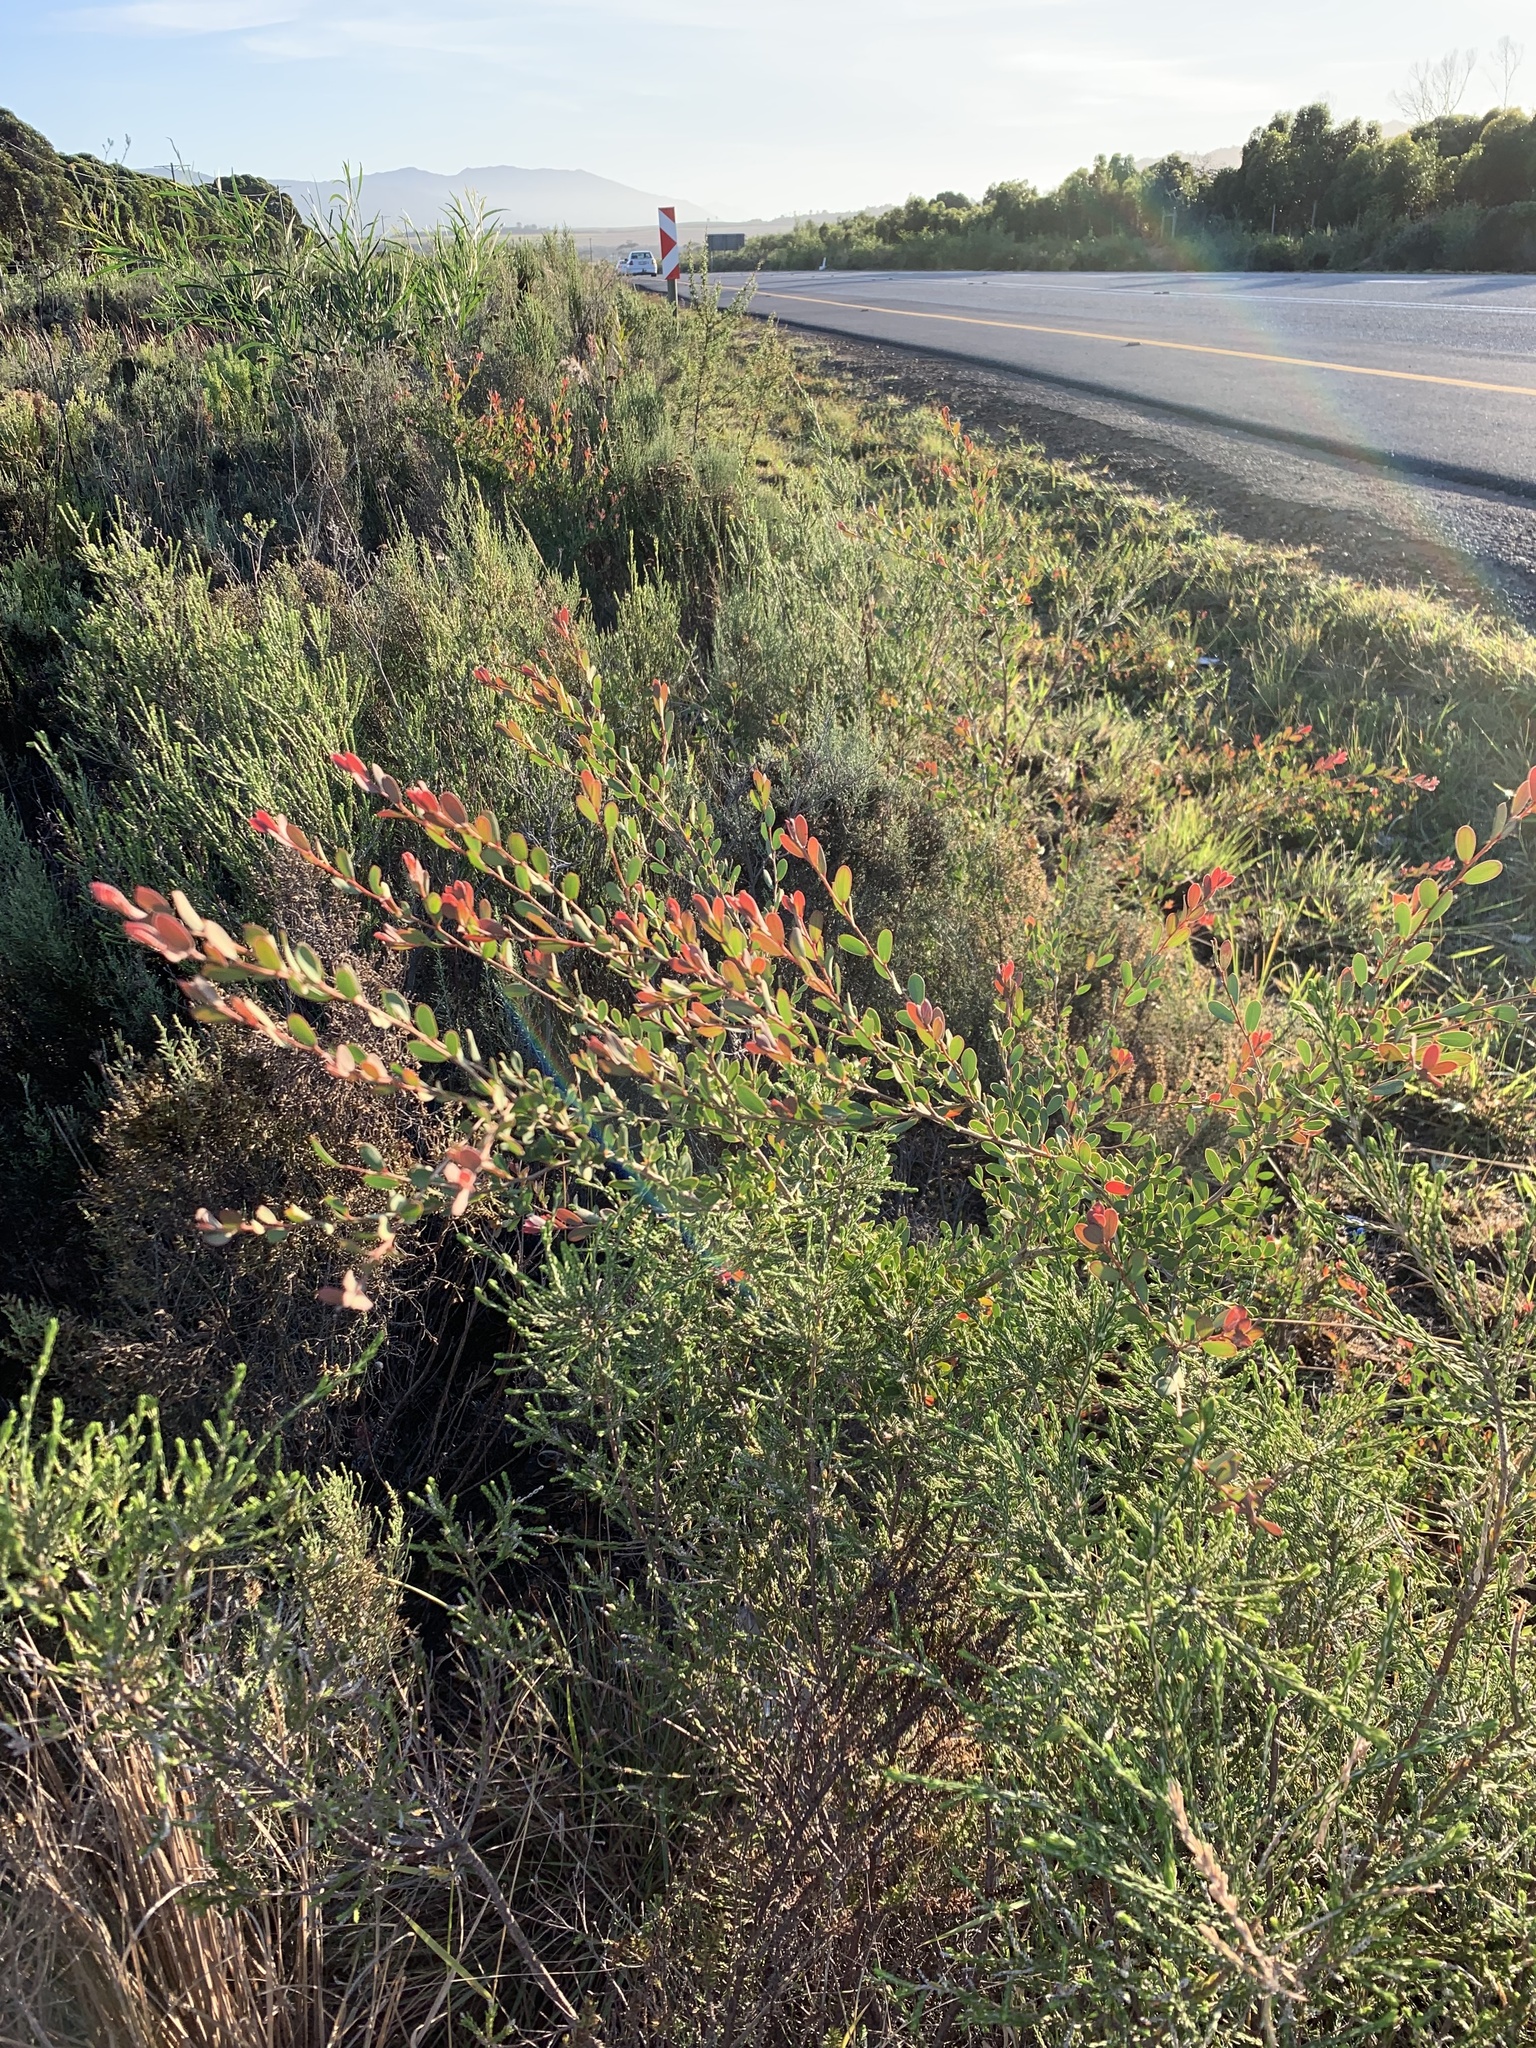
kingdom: Plantae
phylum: Tracheophyta
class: Magnoliopsida
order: Myrtales
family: Myrtaceae
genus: Leptospermum
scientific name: Leptospermum laevigatum
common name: Australian teatree
